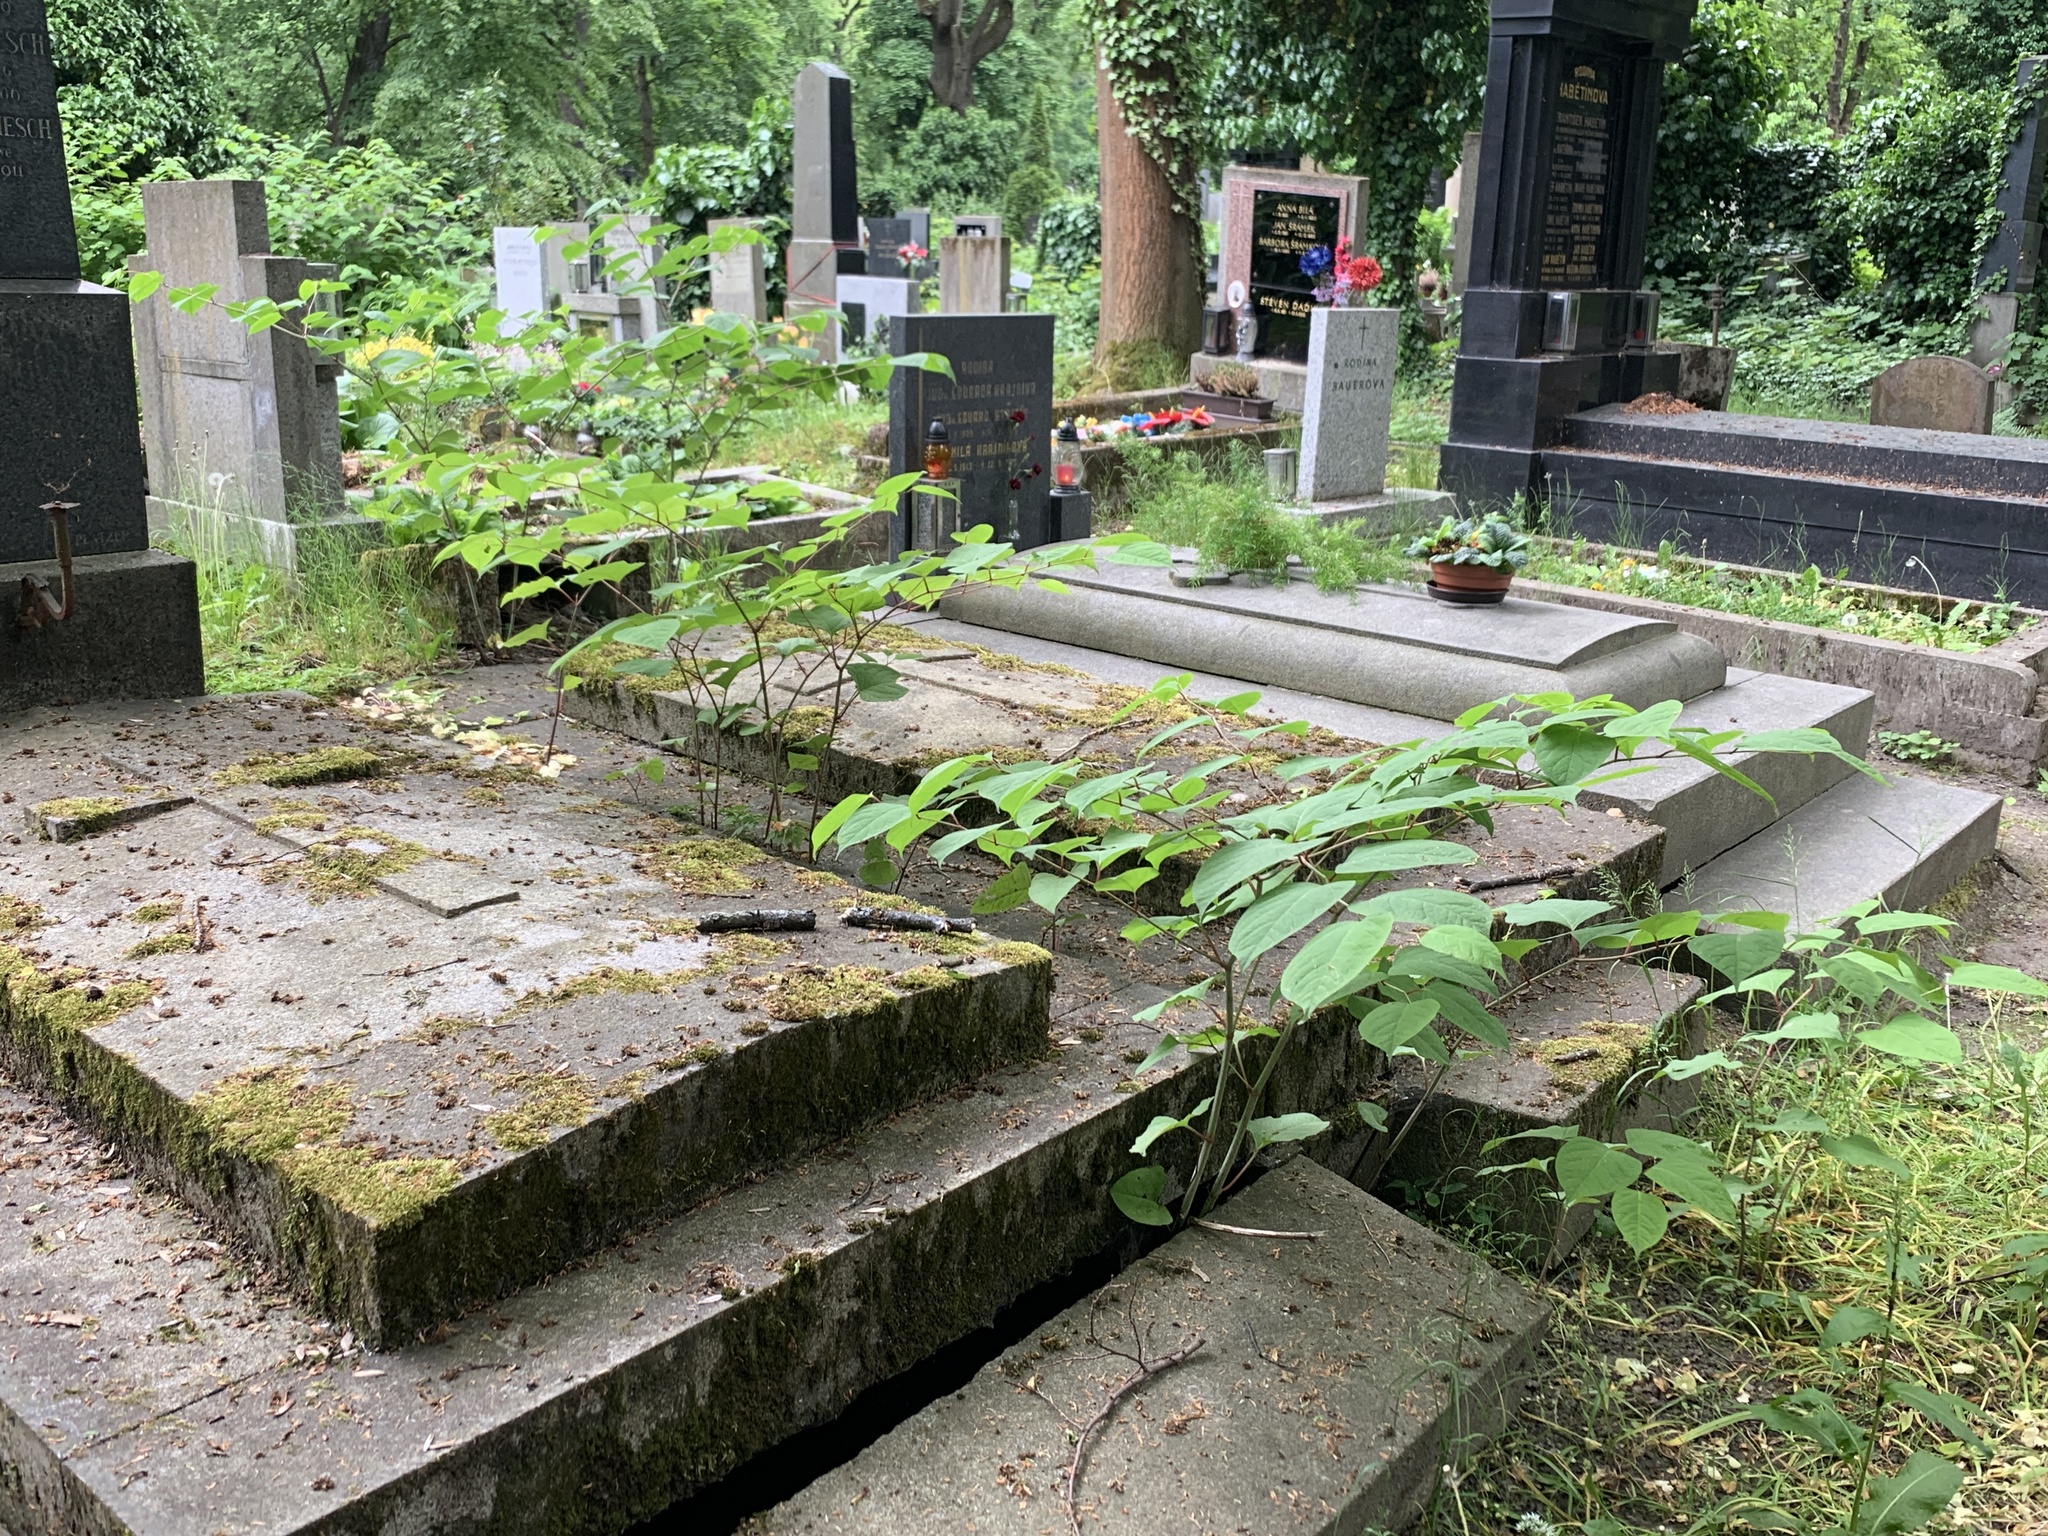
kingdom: Plantae
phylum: Tracheophyta
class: Magnoliopsida
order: Caryophyllales
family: Polygonaceae
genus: Reynoutria
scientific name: Reynoutria japonica
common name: Japanese knotweed
